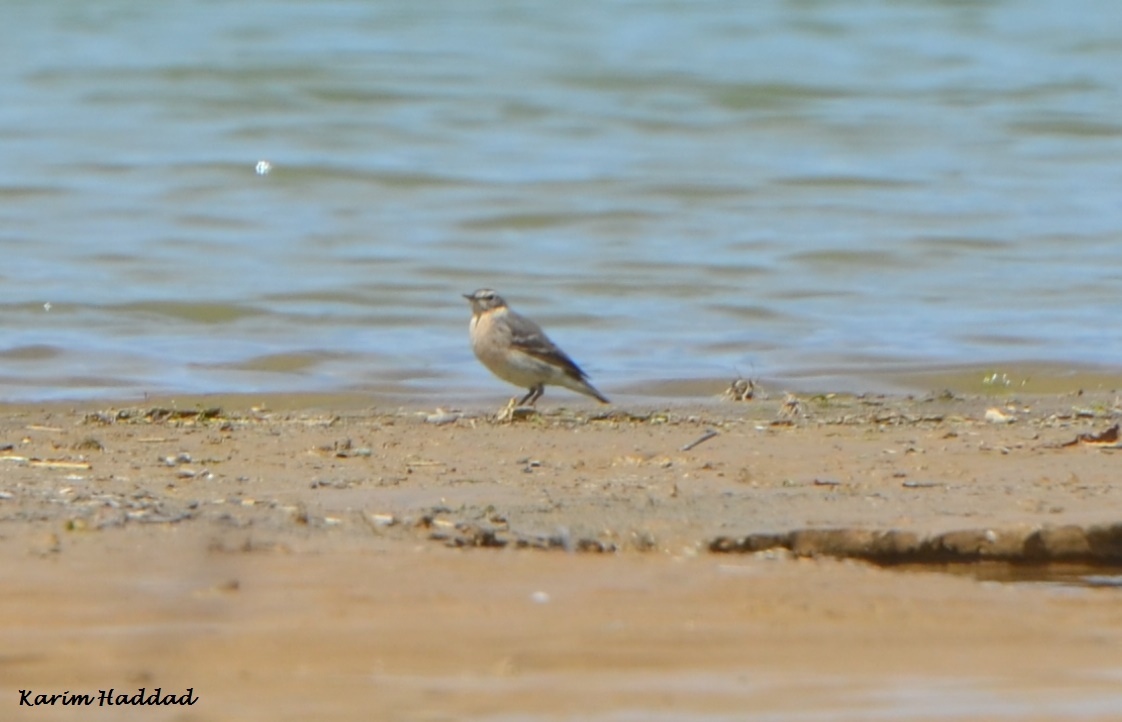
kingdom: Animalia
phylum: Chordata
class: Aves
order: Passeriformes
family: Motacillidae
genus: Anthus
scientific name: Anthus spinoletta
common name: Water pipit
